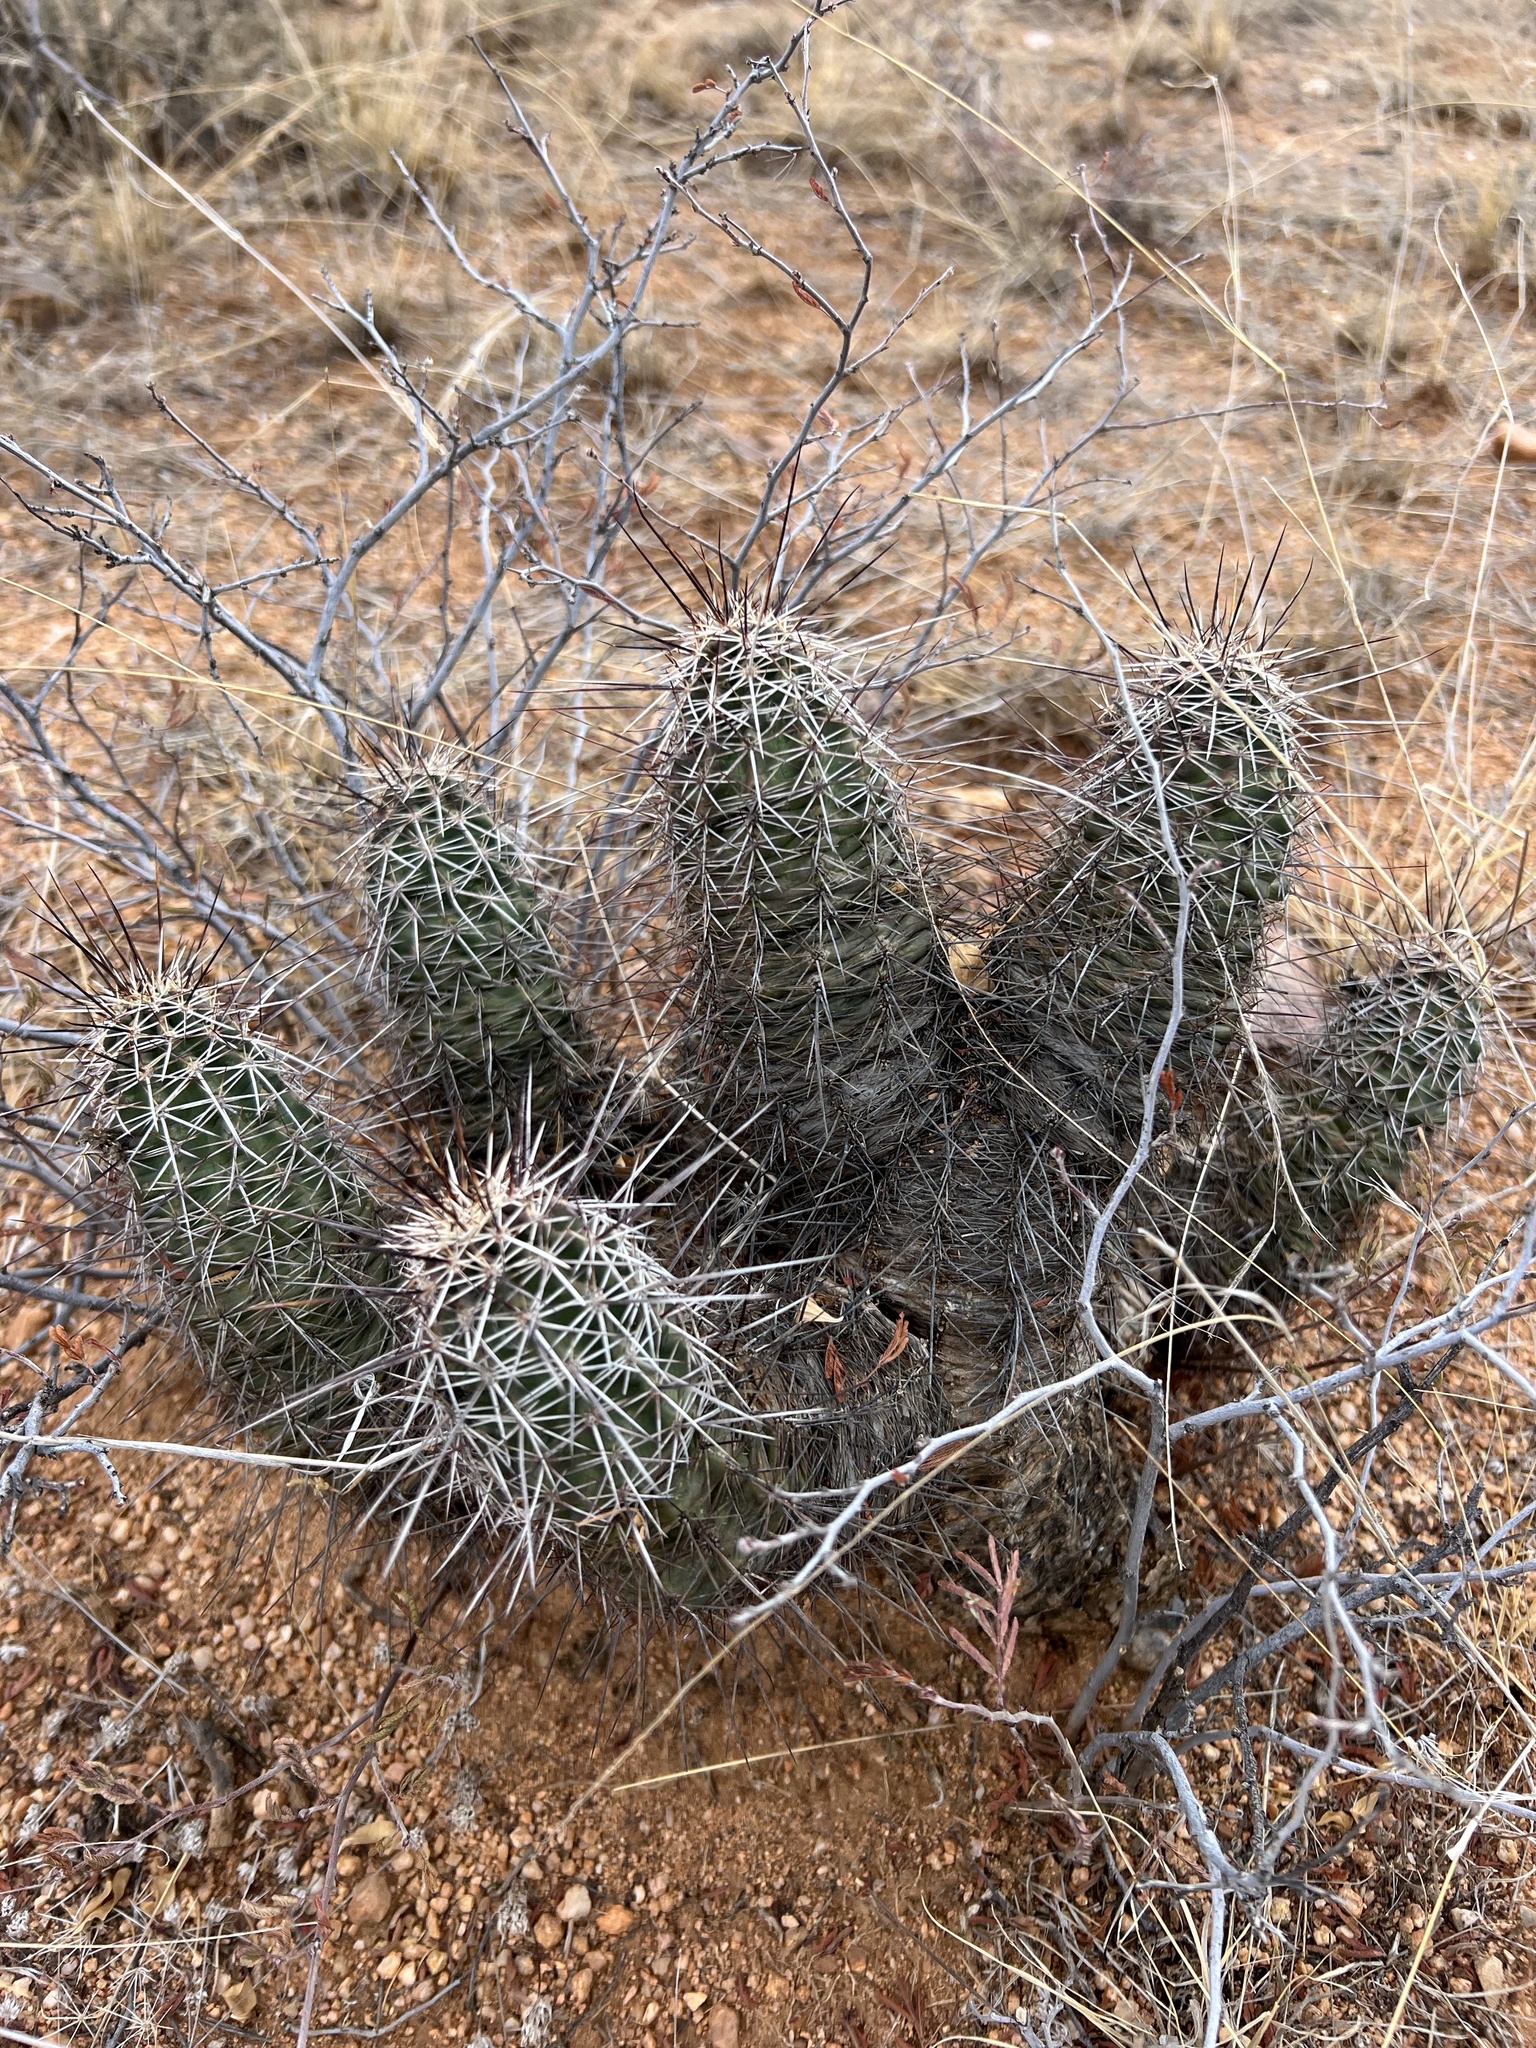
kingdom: Plantae
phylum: Tracheophyta
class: Magnoliopsida
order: Caryophyllales
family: Cactaceae
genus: Echinocereus
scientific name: Echinocereus fasciculatus
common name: Bundle hedgehog
